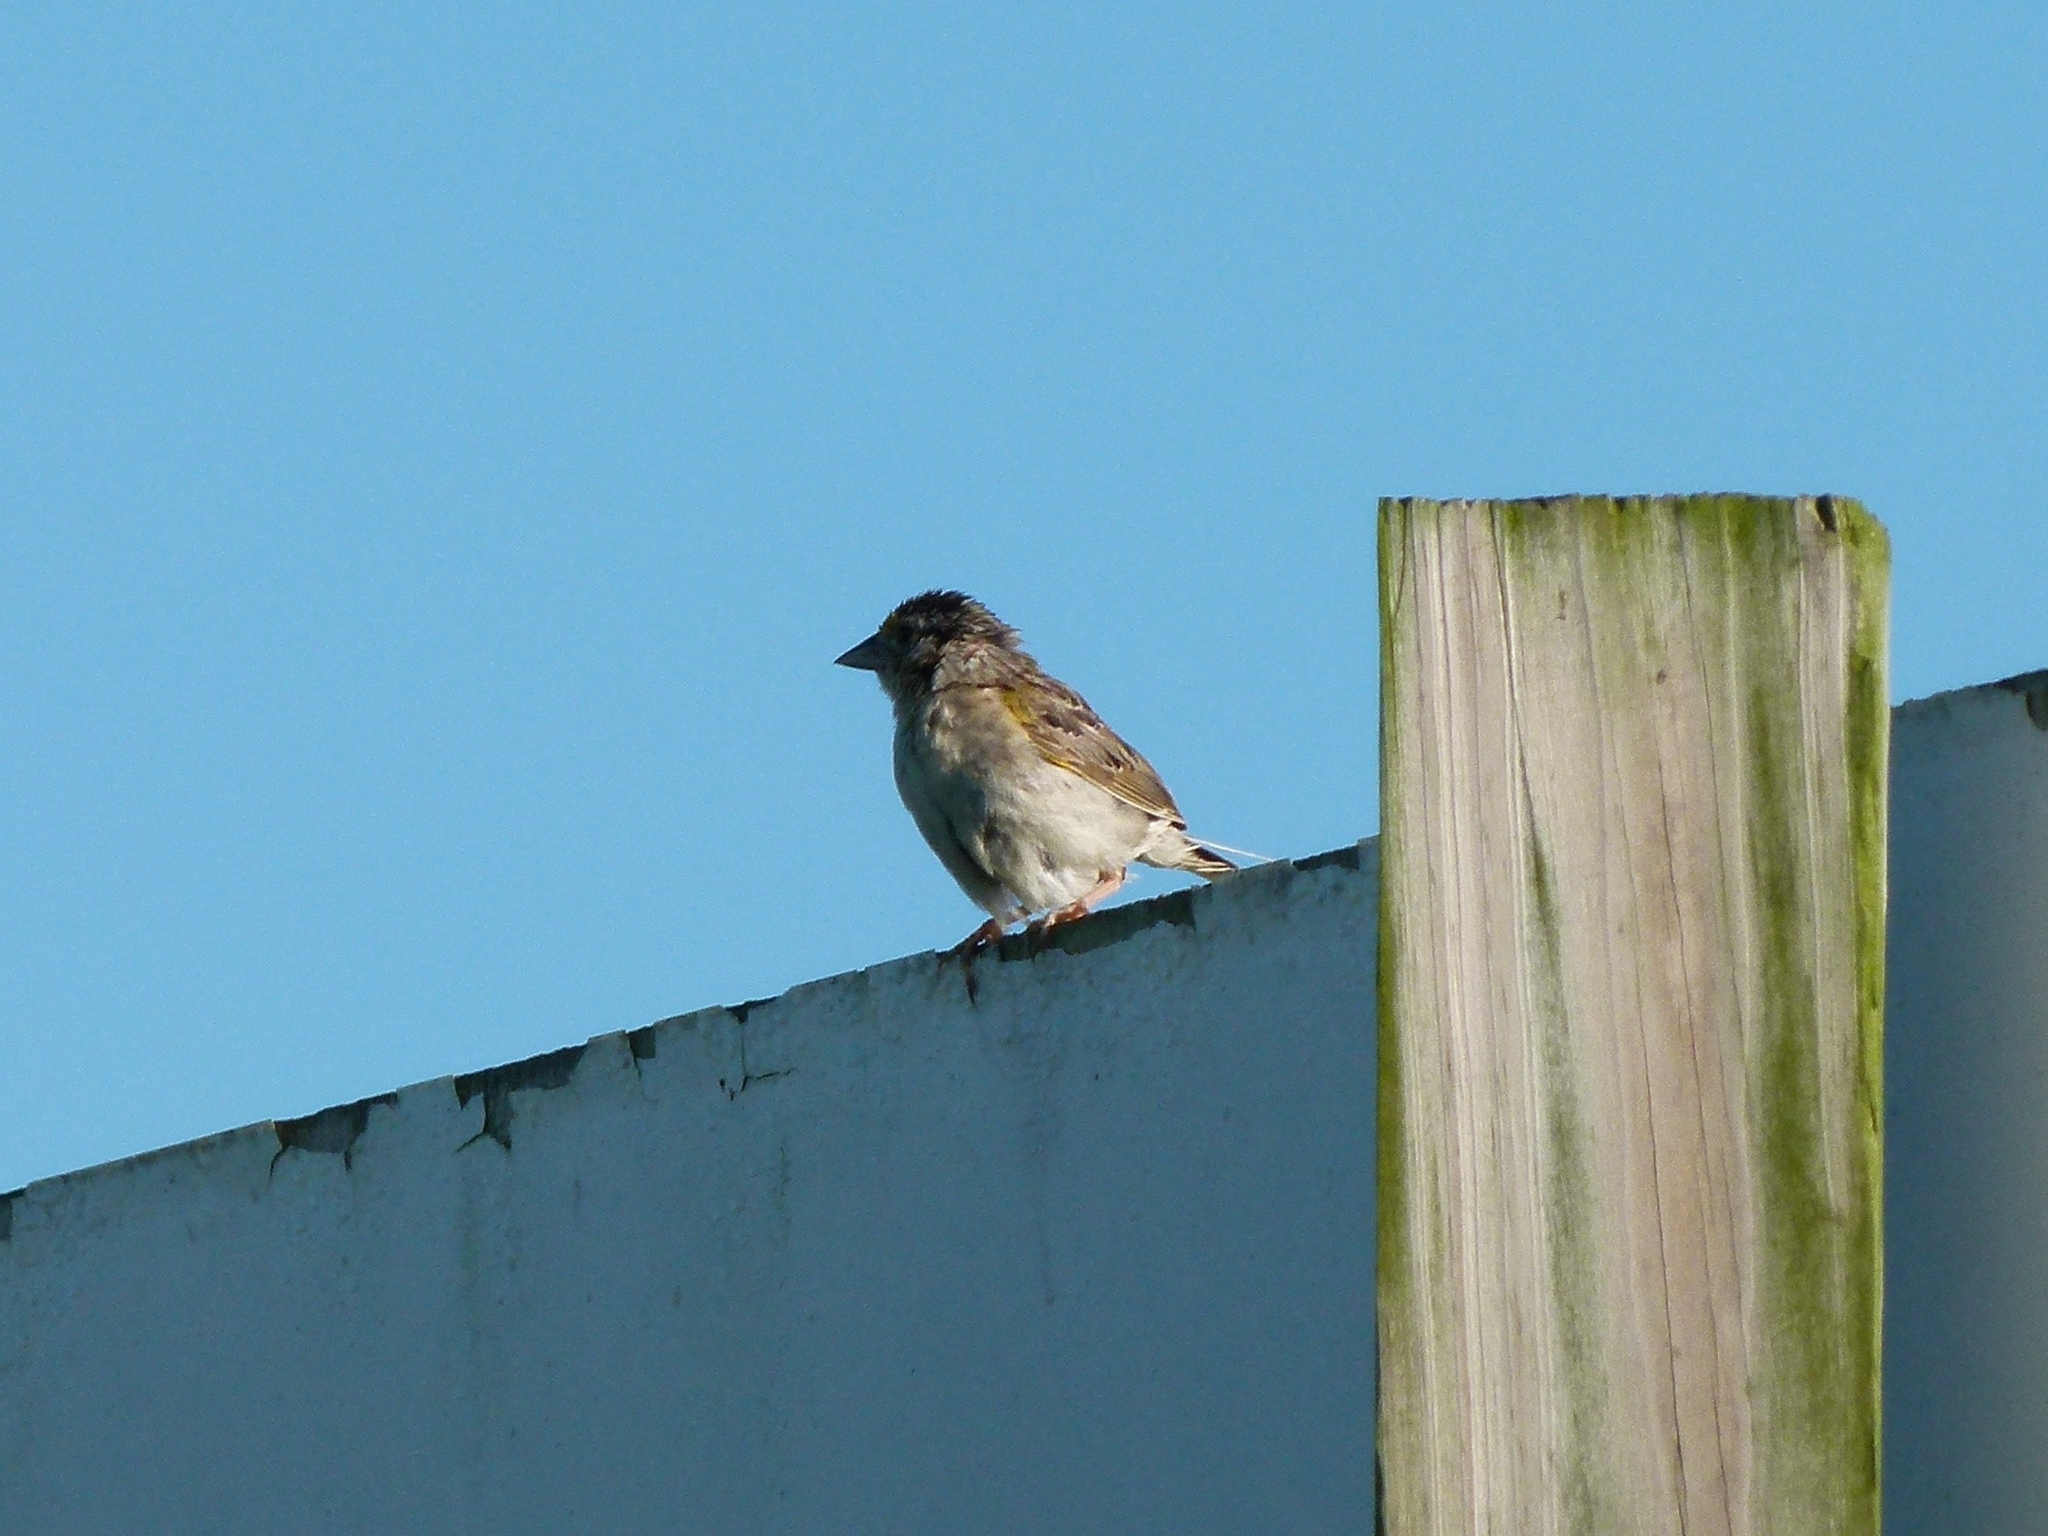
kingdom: Animalia
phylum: Chordata
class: Aves
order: Passeriformes
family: Passerellidae
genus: Ammodramus
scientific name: Ammodramus savannarum
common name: Grasshopper sparrow
